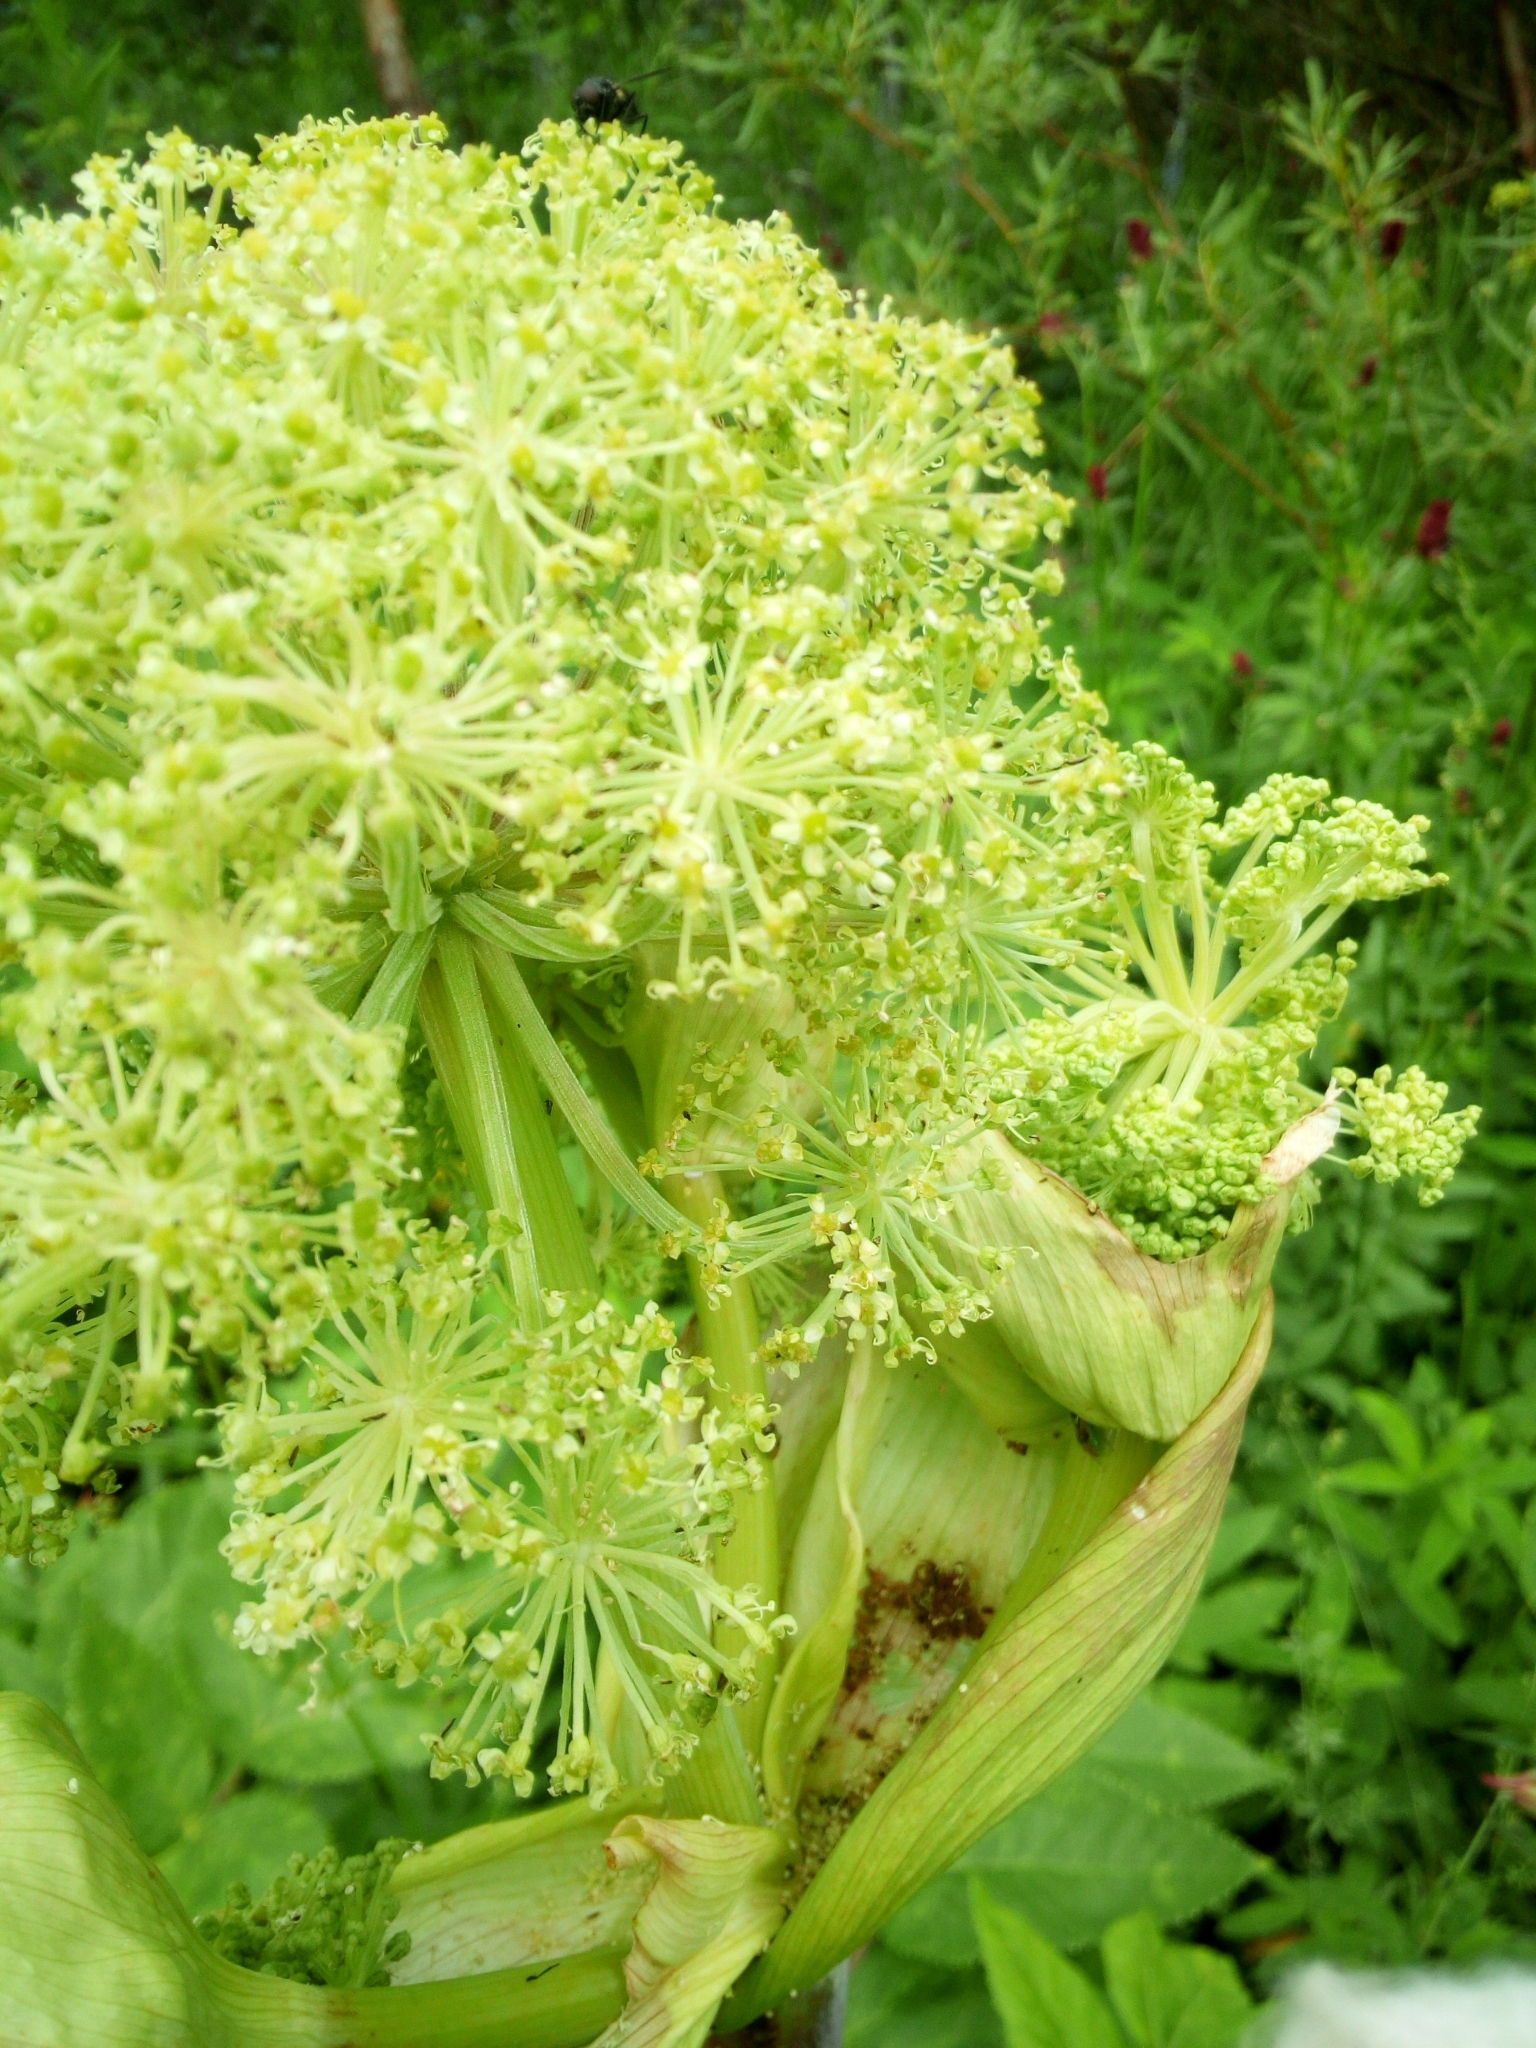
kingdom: Plantae
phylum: Tracheophyta
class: Magnoliopsida
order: Apiales
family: Apiaceae
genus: Angelica
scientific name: Angelica archangelica
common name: Garden angelica
